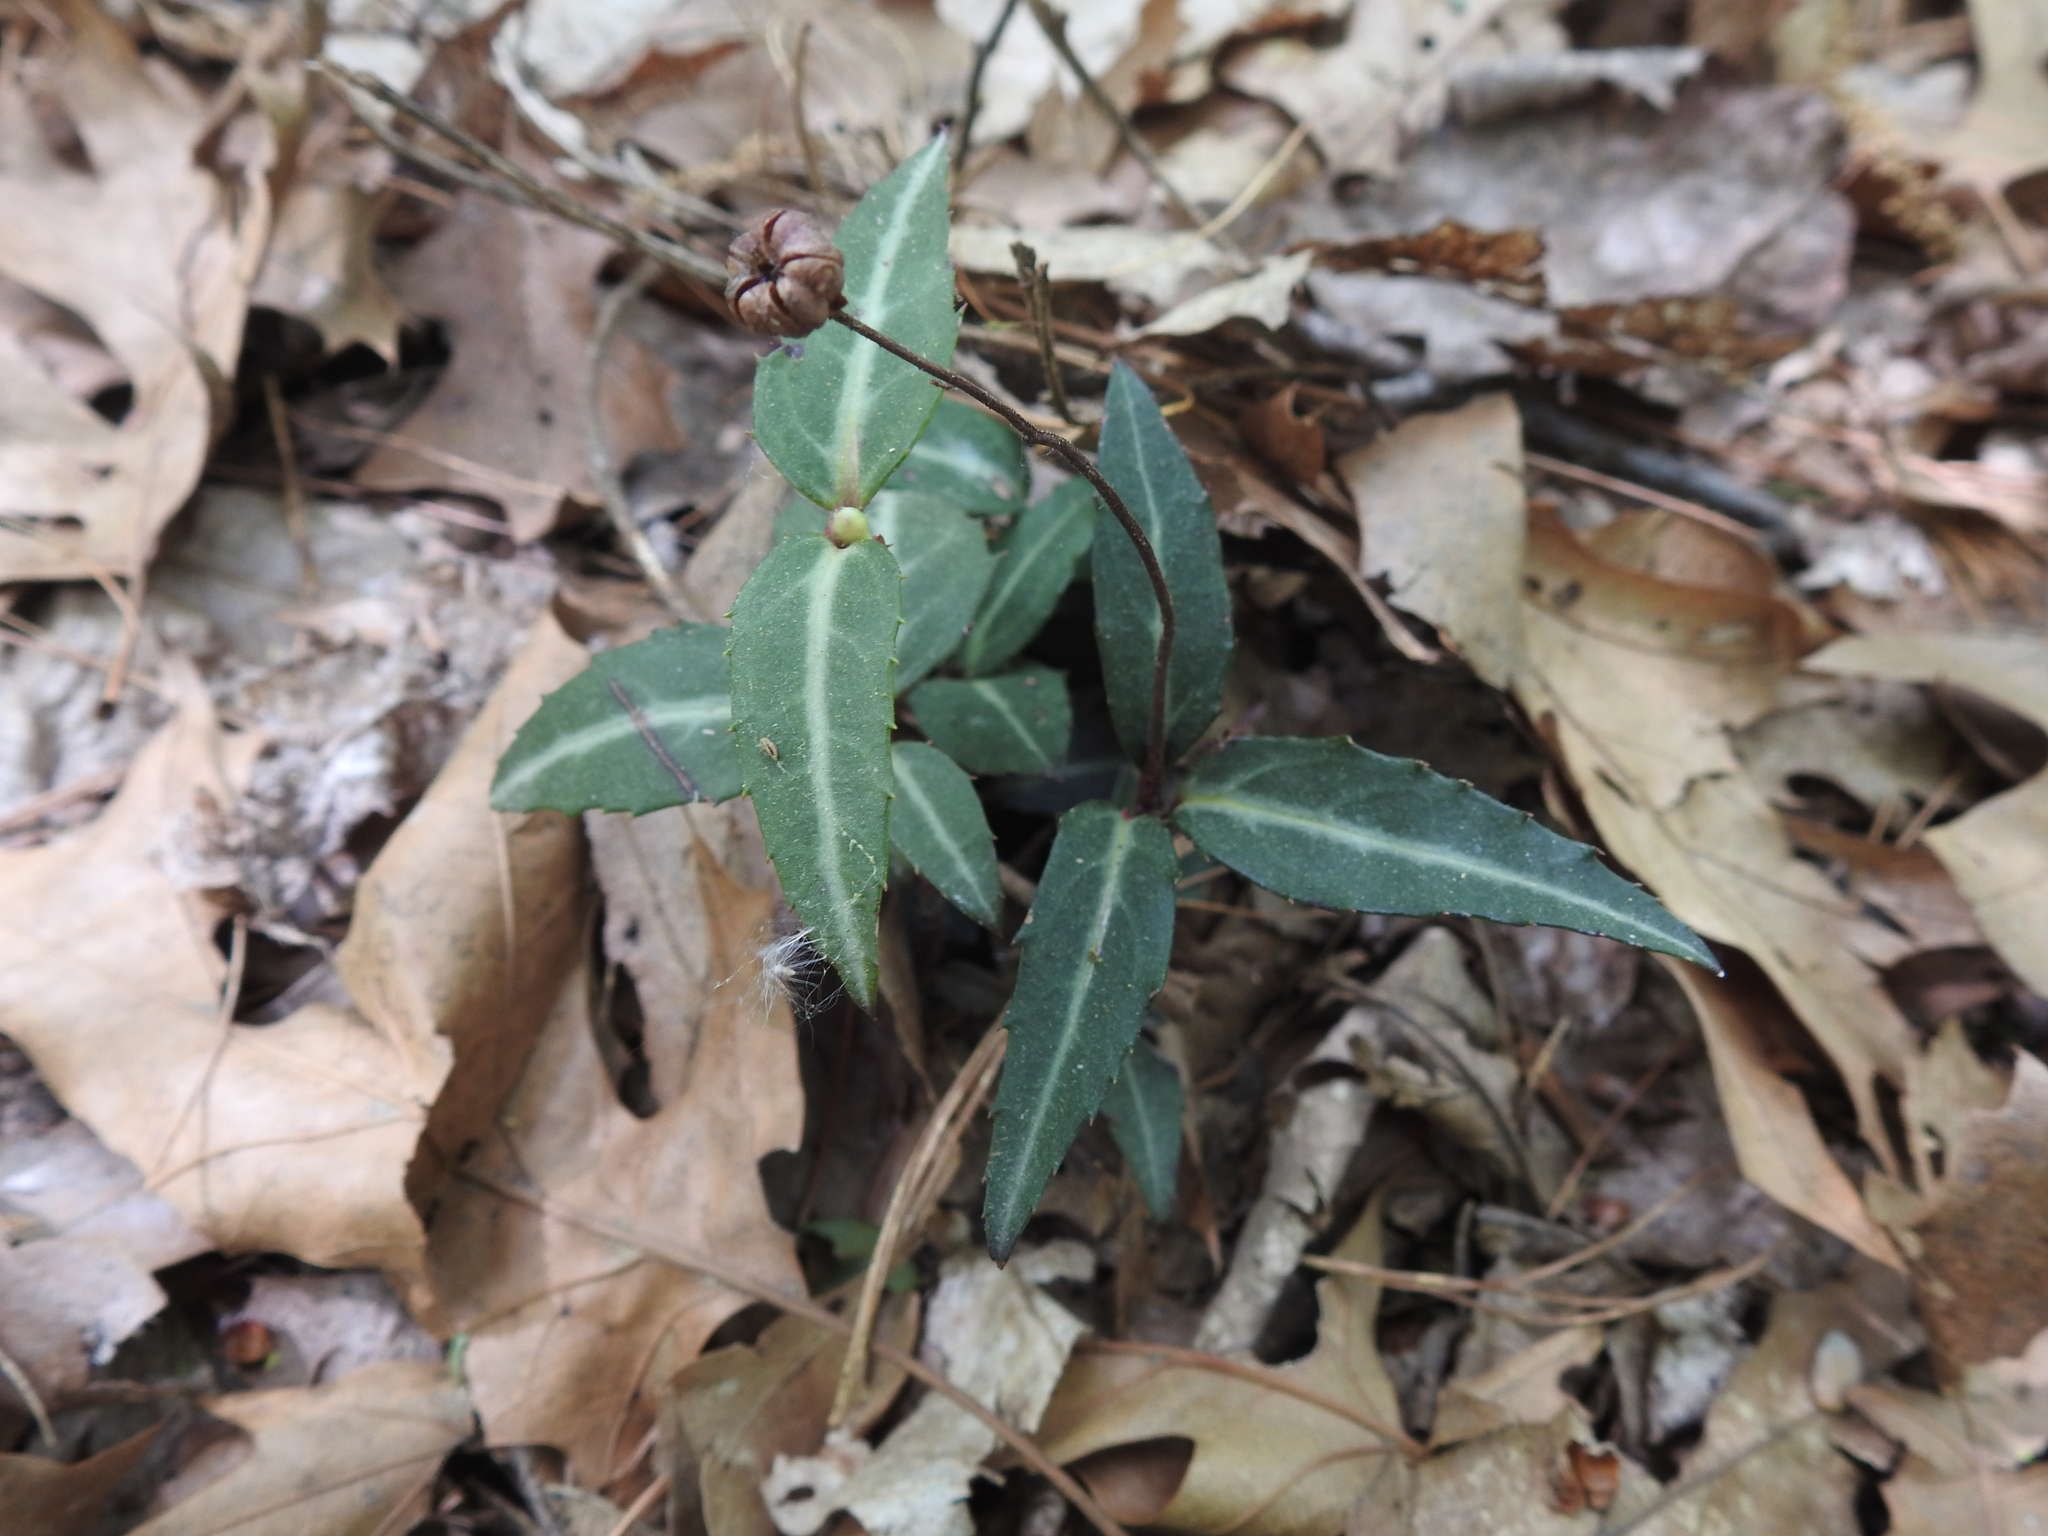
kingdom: Plantae
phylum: Tracheophyta
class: Magnoliopsida
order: Ericales
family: Ericaceae
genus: Chimaphila
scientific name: Chimaphila maculata
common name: Spotted pipsissewa
